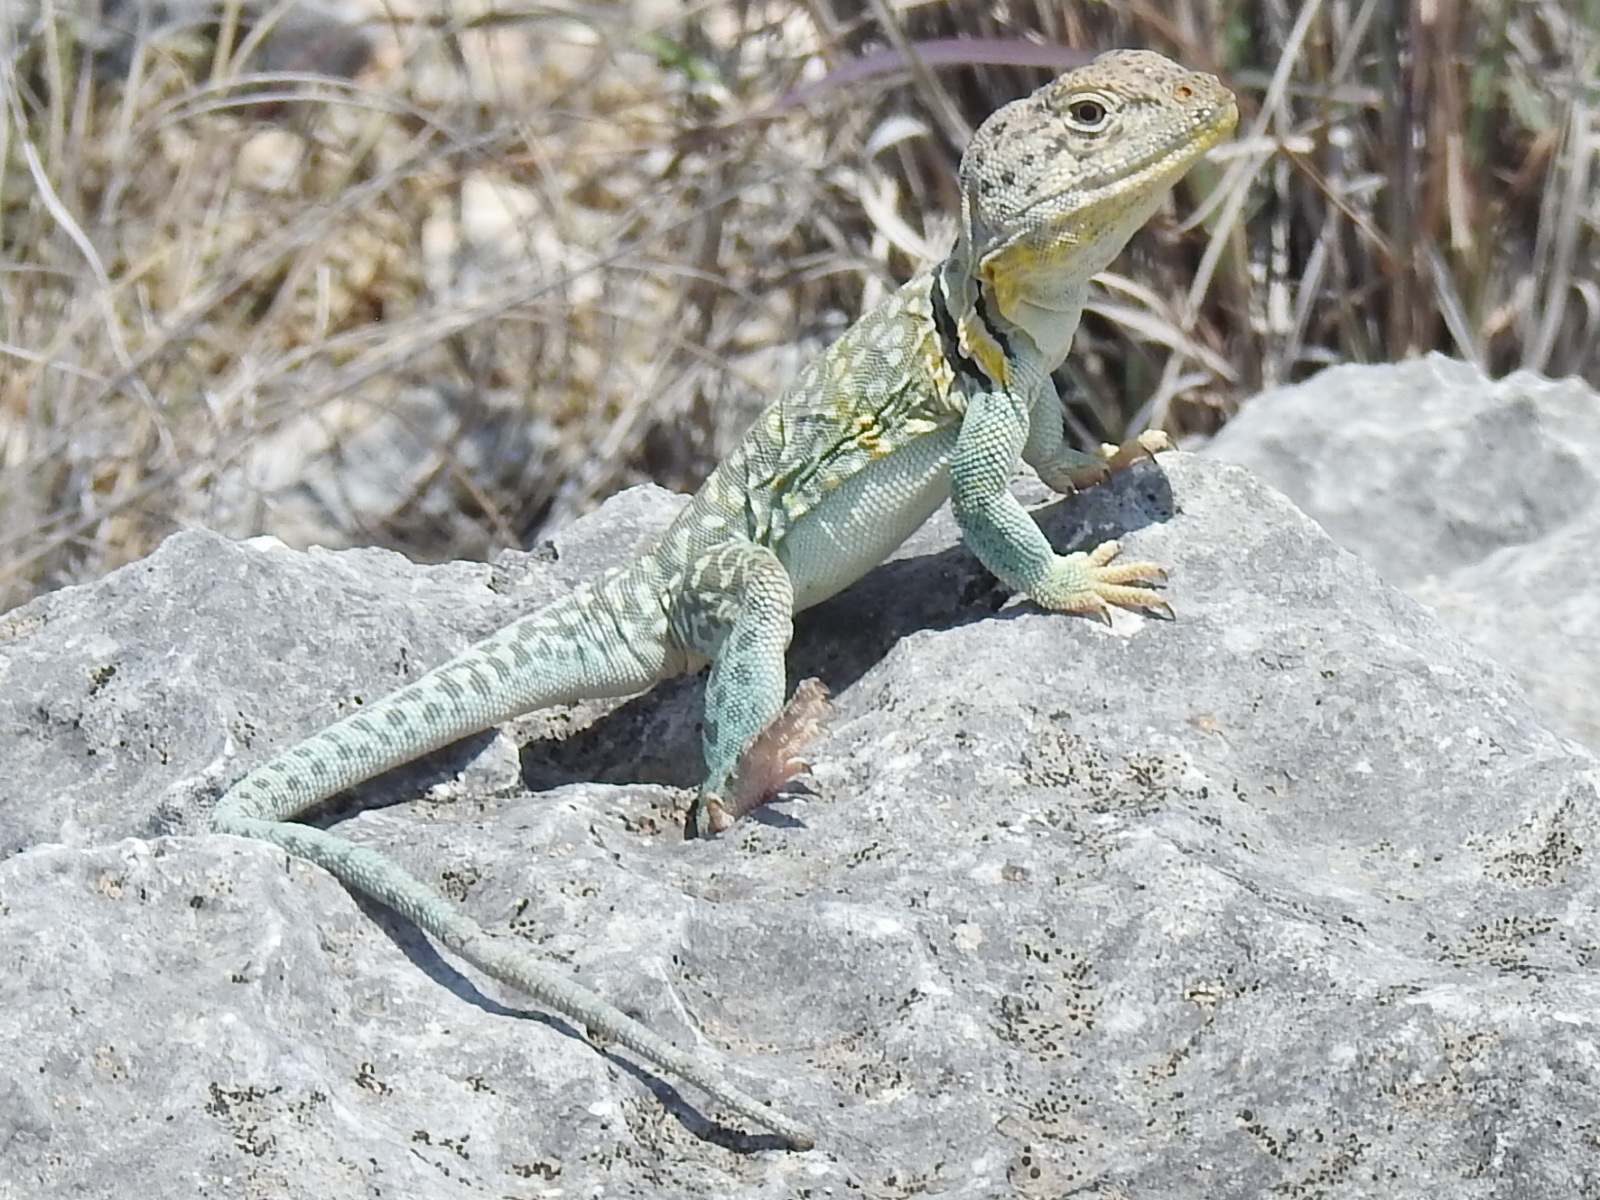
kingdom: Animalia
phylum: Chordata
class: Squamata
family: Crotaphytidae
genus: Crotaphytus
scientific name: Crotaphytus collaris
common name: Collared lizard
